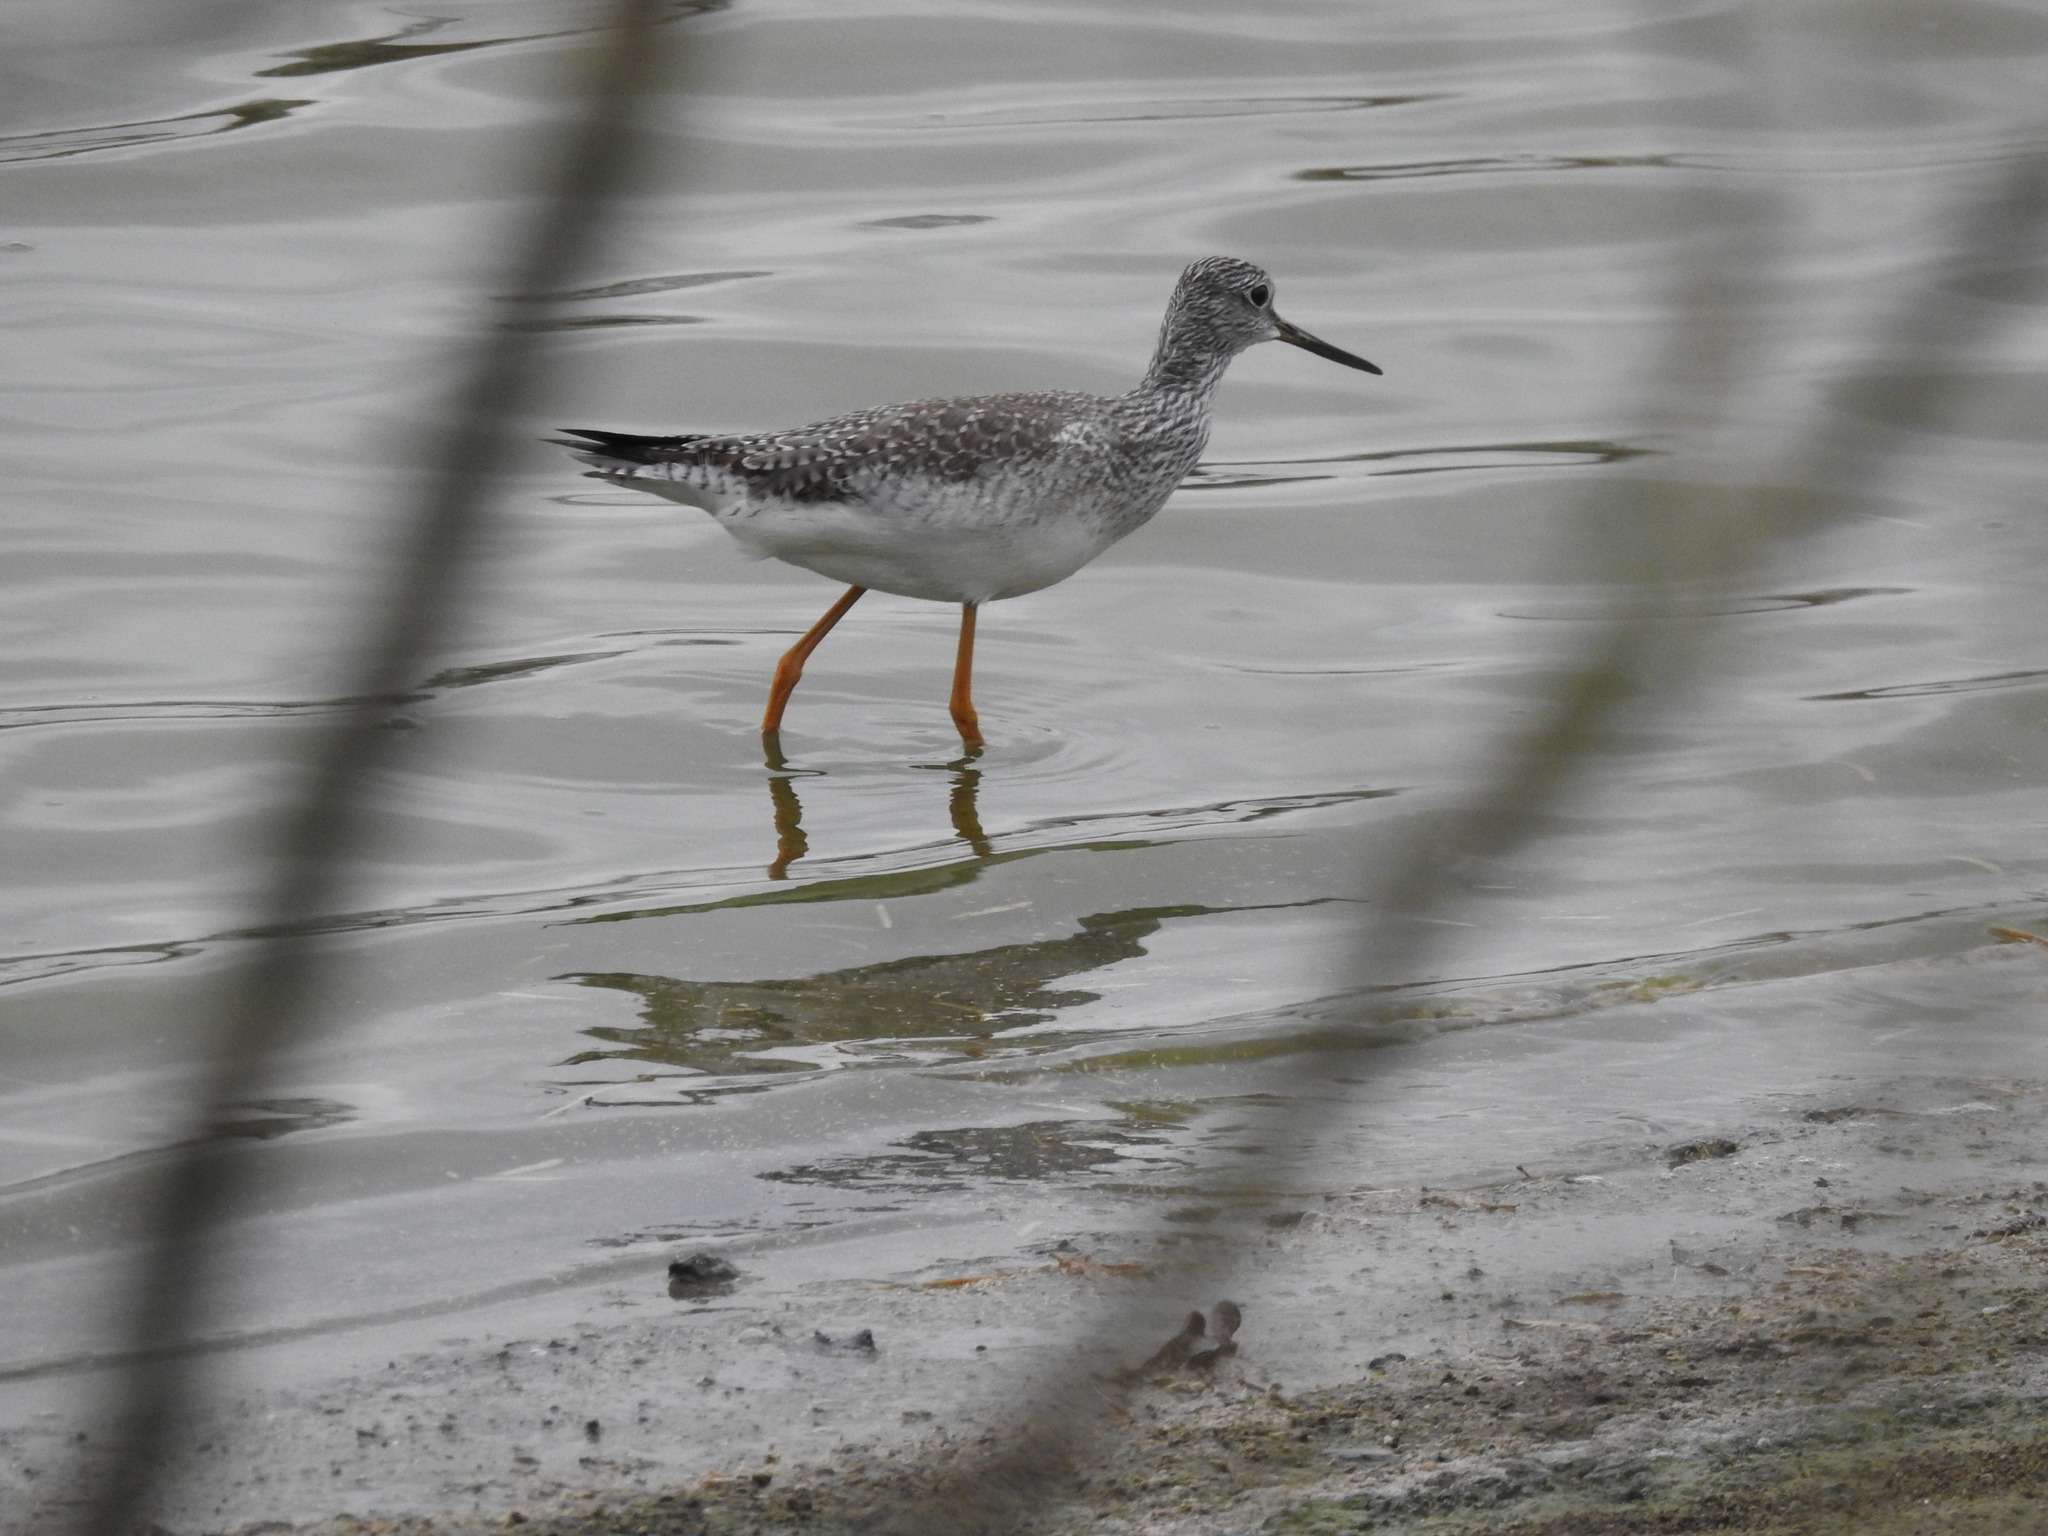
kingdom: Animalia
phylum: Chordata
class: Aves
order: Charadriiformes
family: Scolopacidae
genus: Tringa
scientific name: Tringa melanoleuca
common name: Greater yellowlegs
